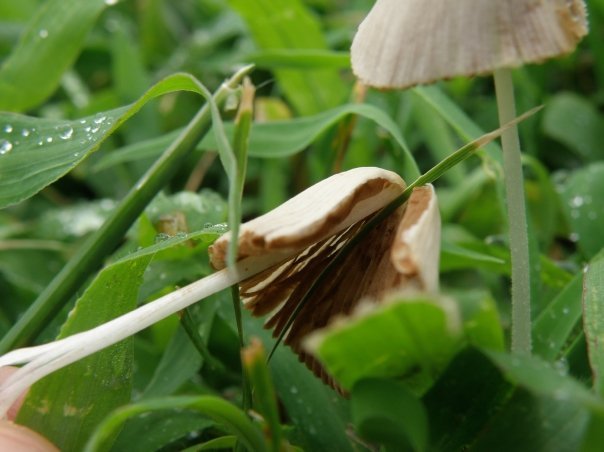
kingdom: Fungi
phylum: Basidiomycota
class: Agaricomycetes
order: Agaricales
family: Bolbitiaceae
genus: Conocybe
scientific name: Conocybe apala
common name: Milky conecap
